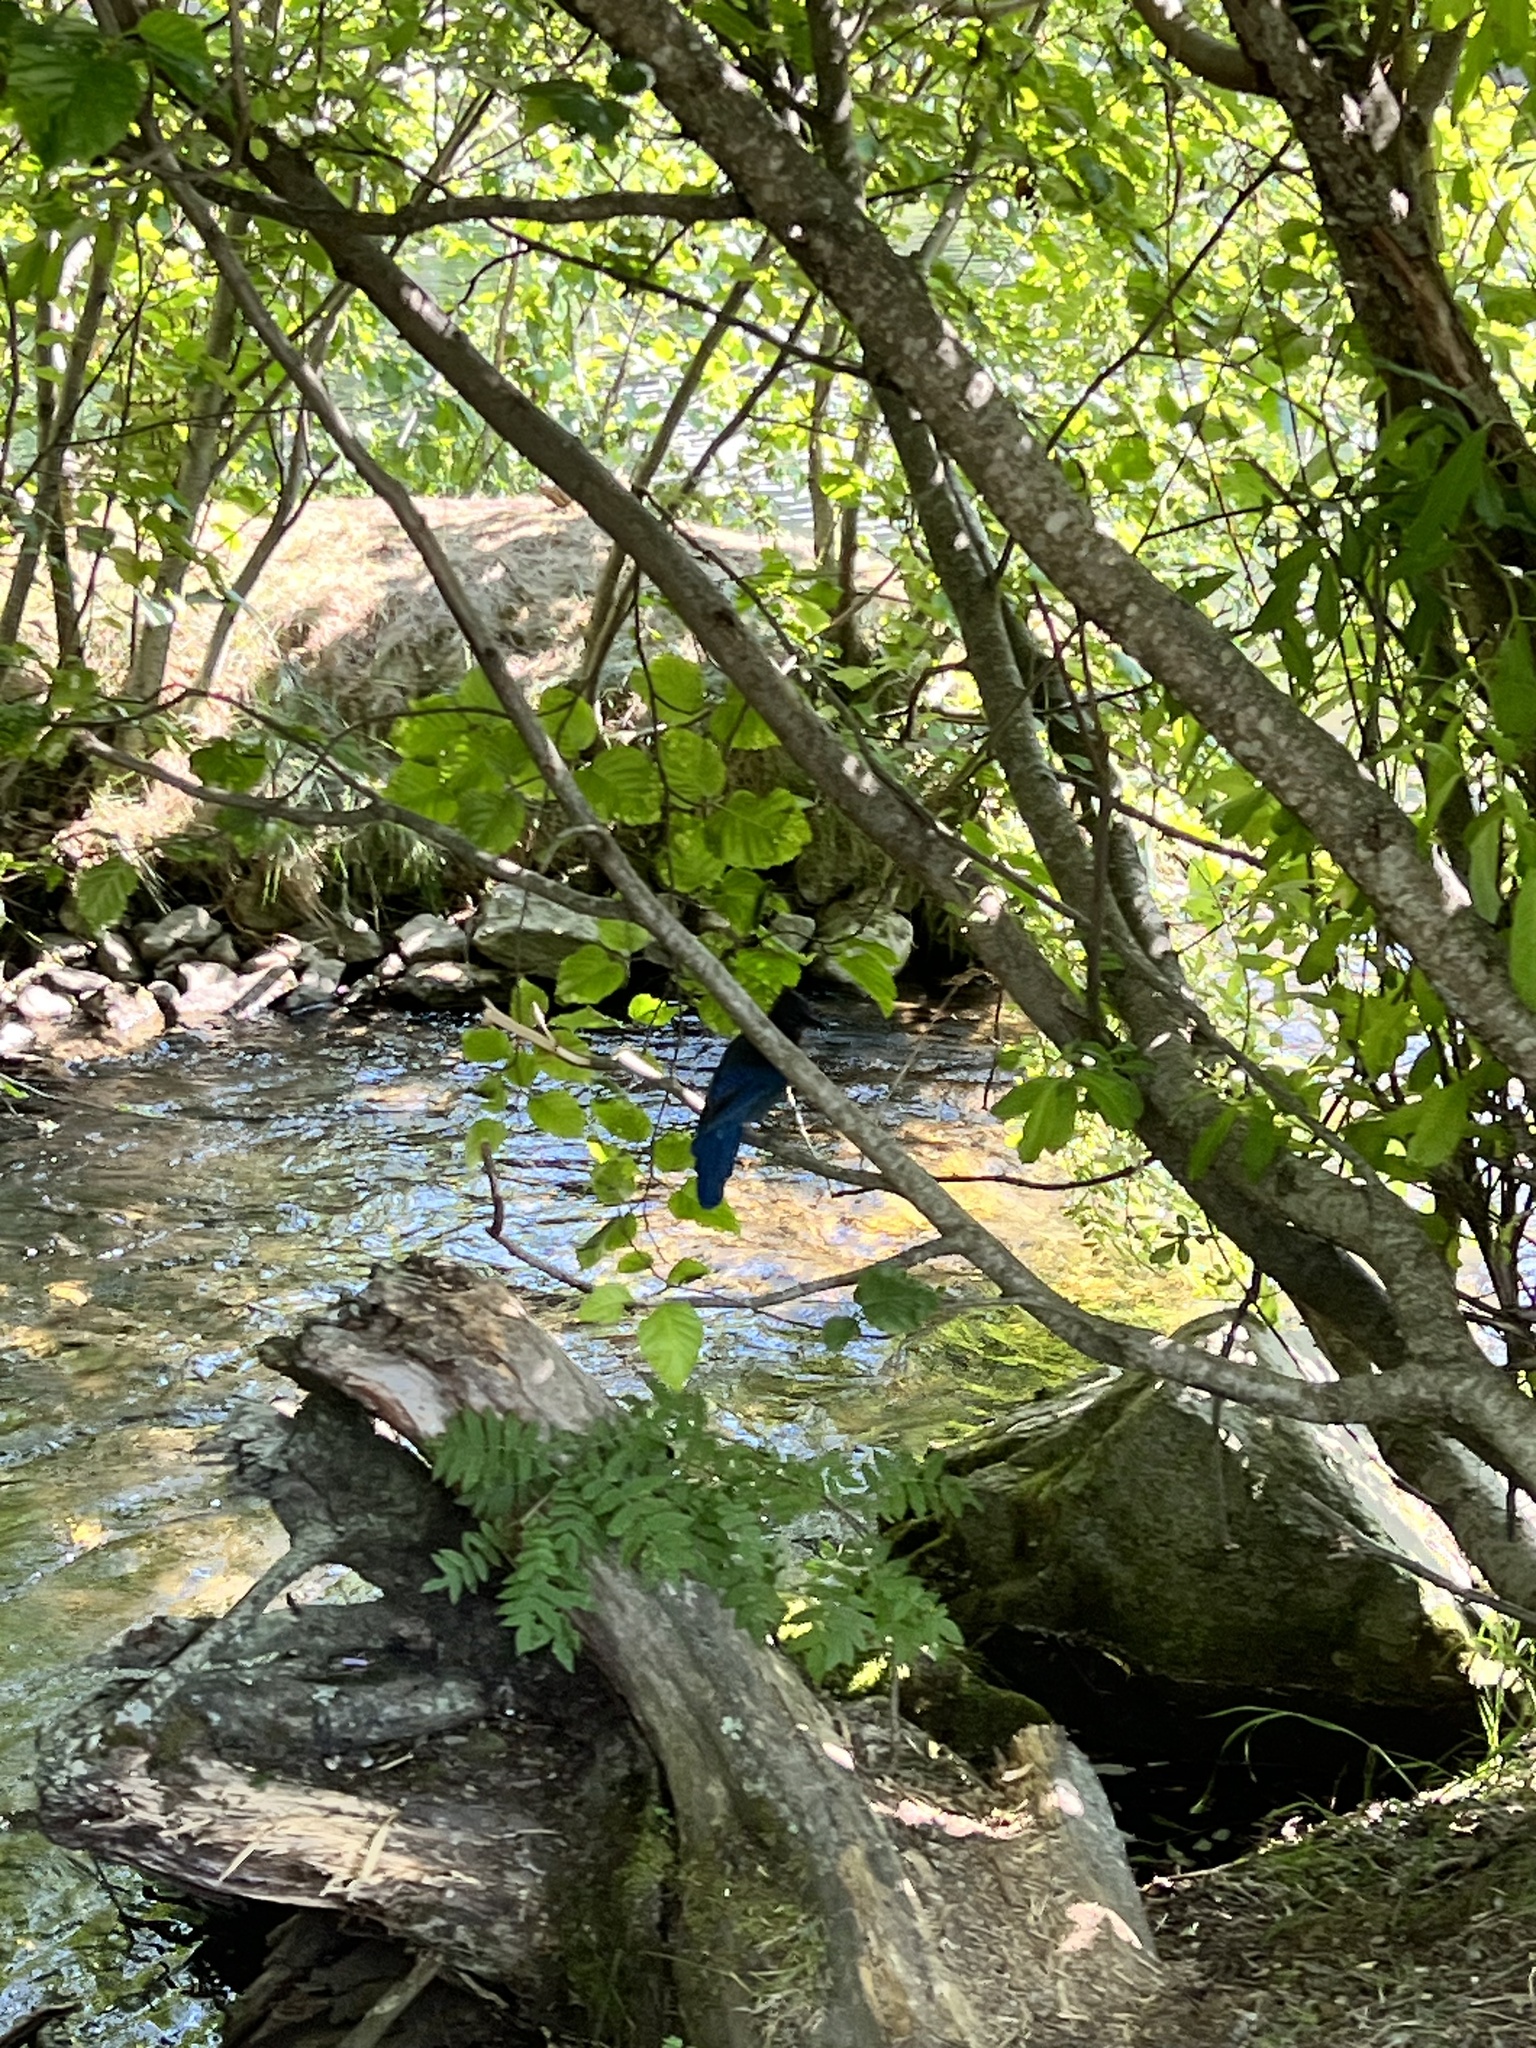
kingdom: Plantae
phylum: Tracheophyta
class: Magnoliopsida
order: Rosales
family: Rosaceae
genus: Sorbus
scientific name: Sorbus aucuparia
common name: Rowan
